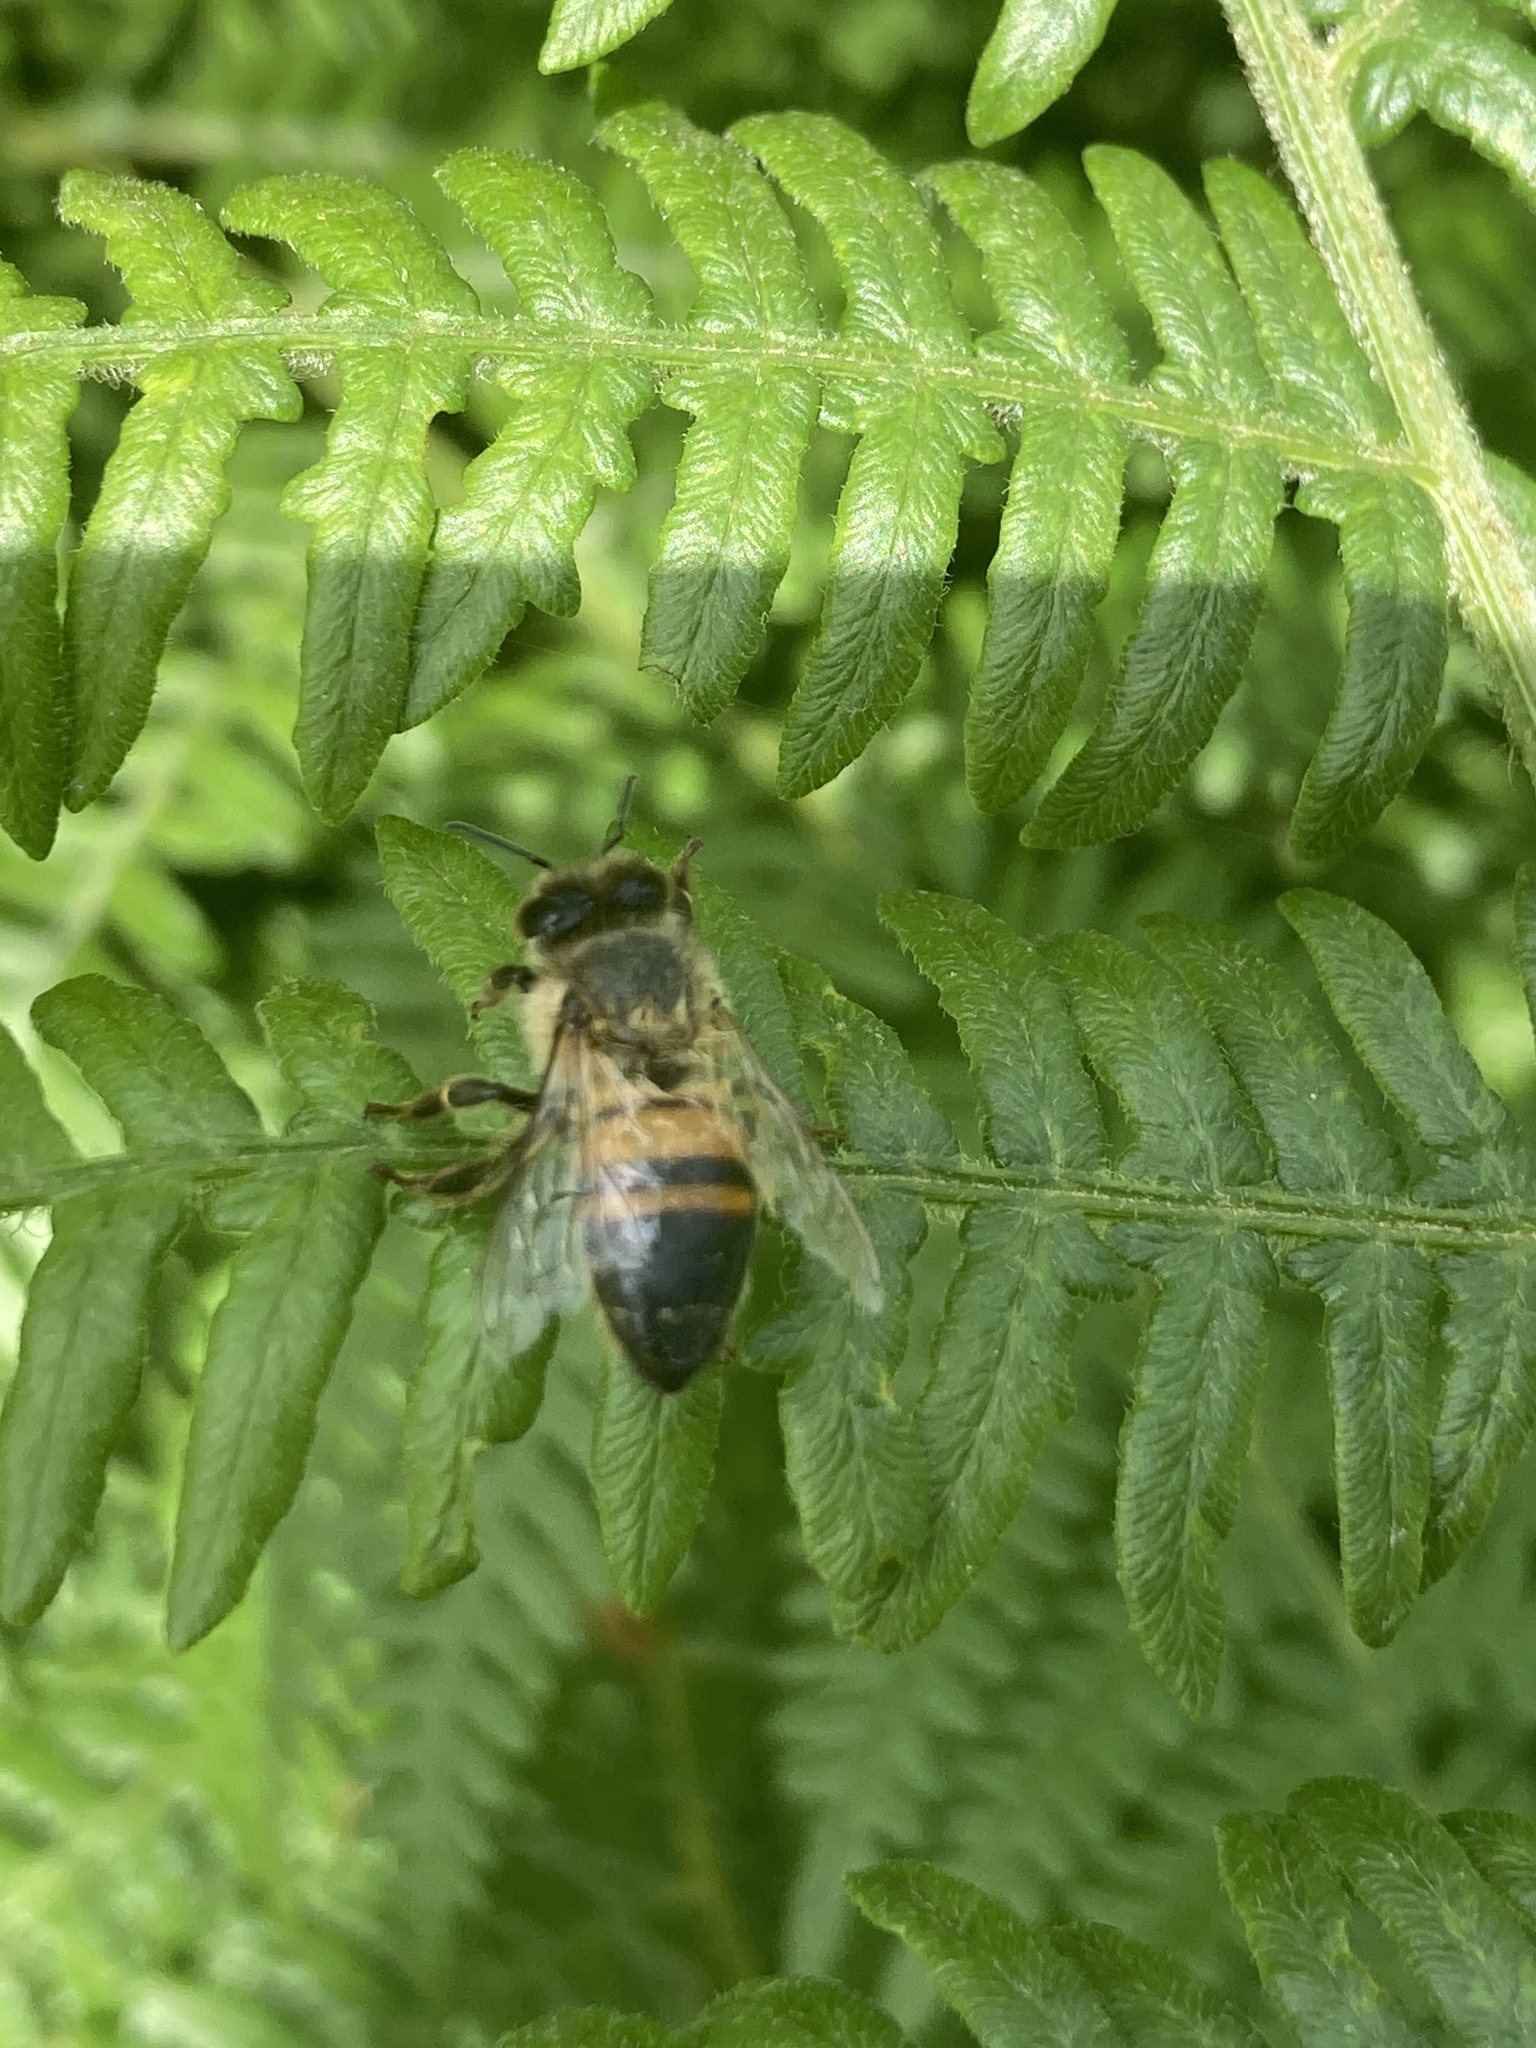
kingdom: Animalia
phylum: Arthropoda
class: Insecta
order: Hymenoptera
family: Apidae
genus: Apis
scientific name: Apis mellifera
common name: Honey bee
